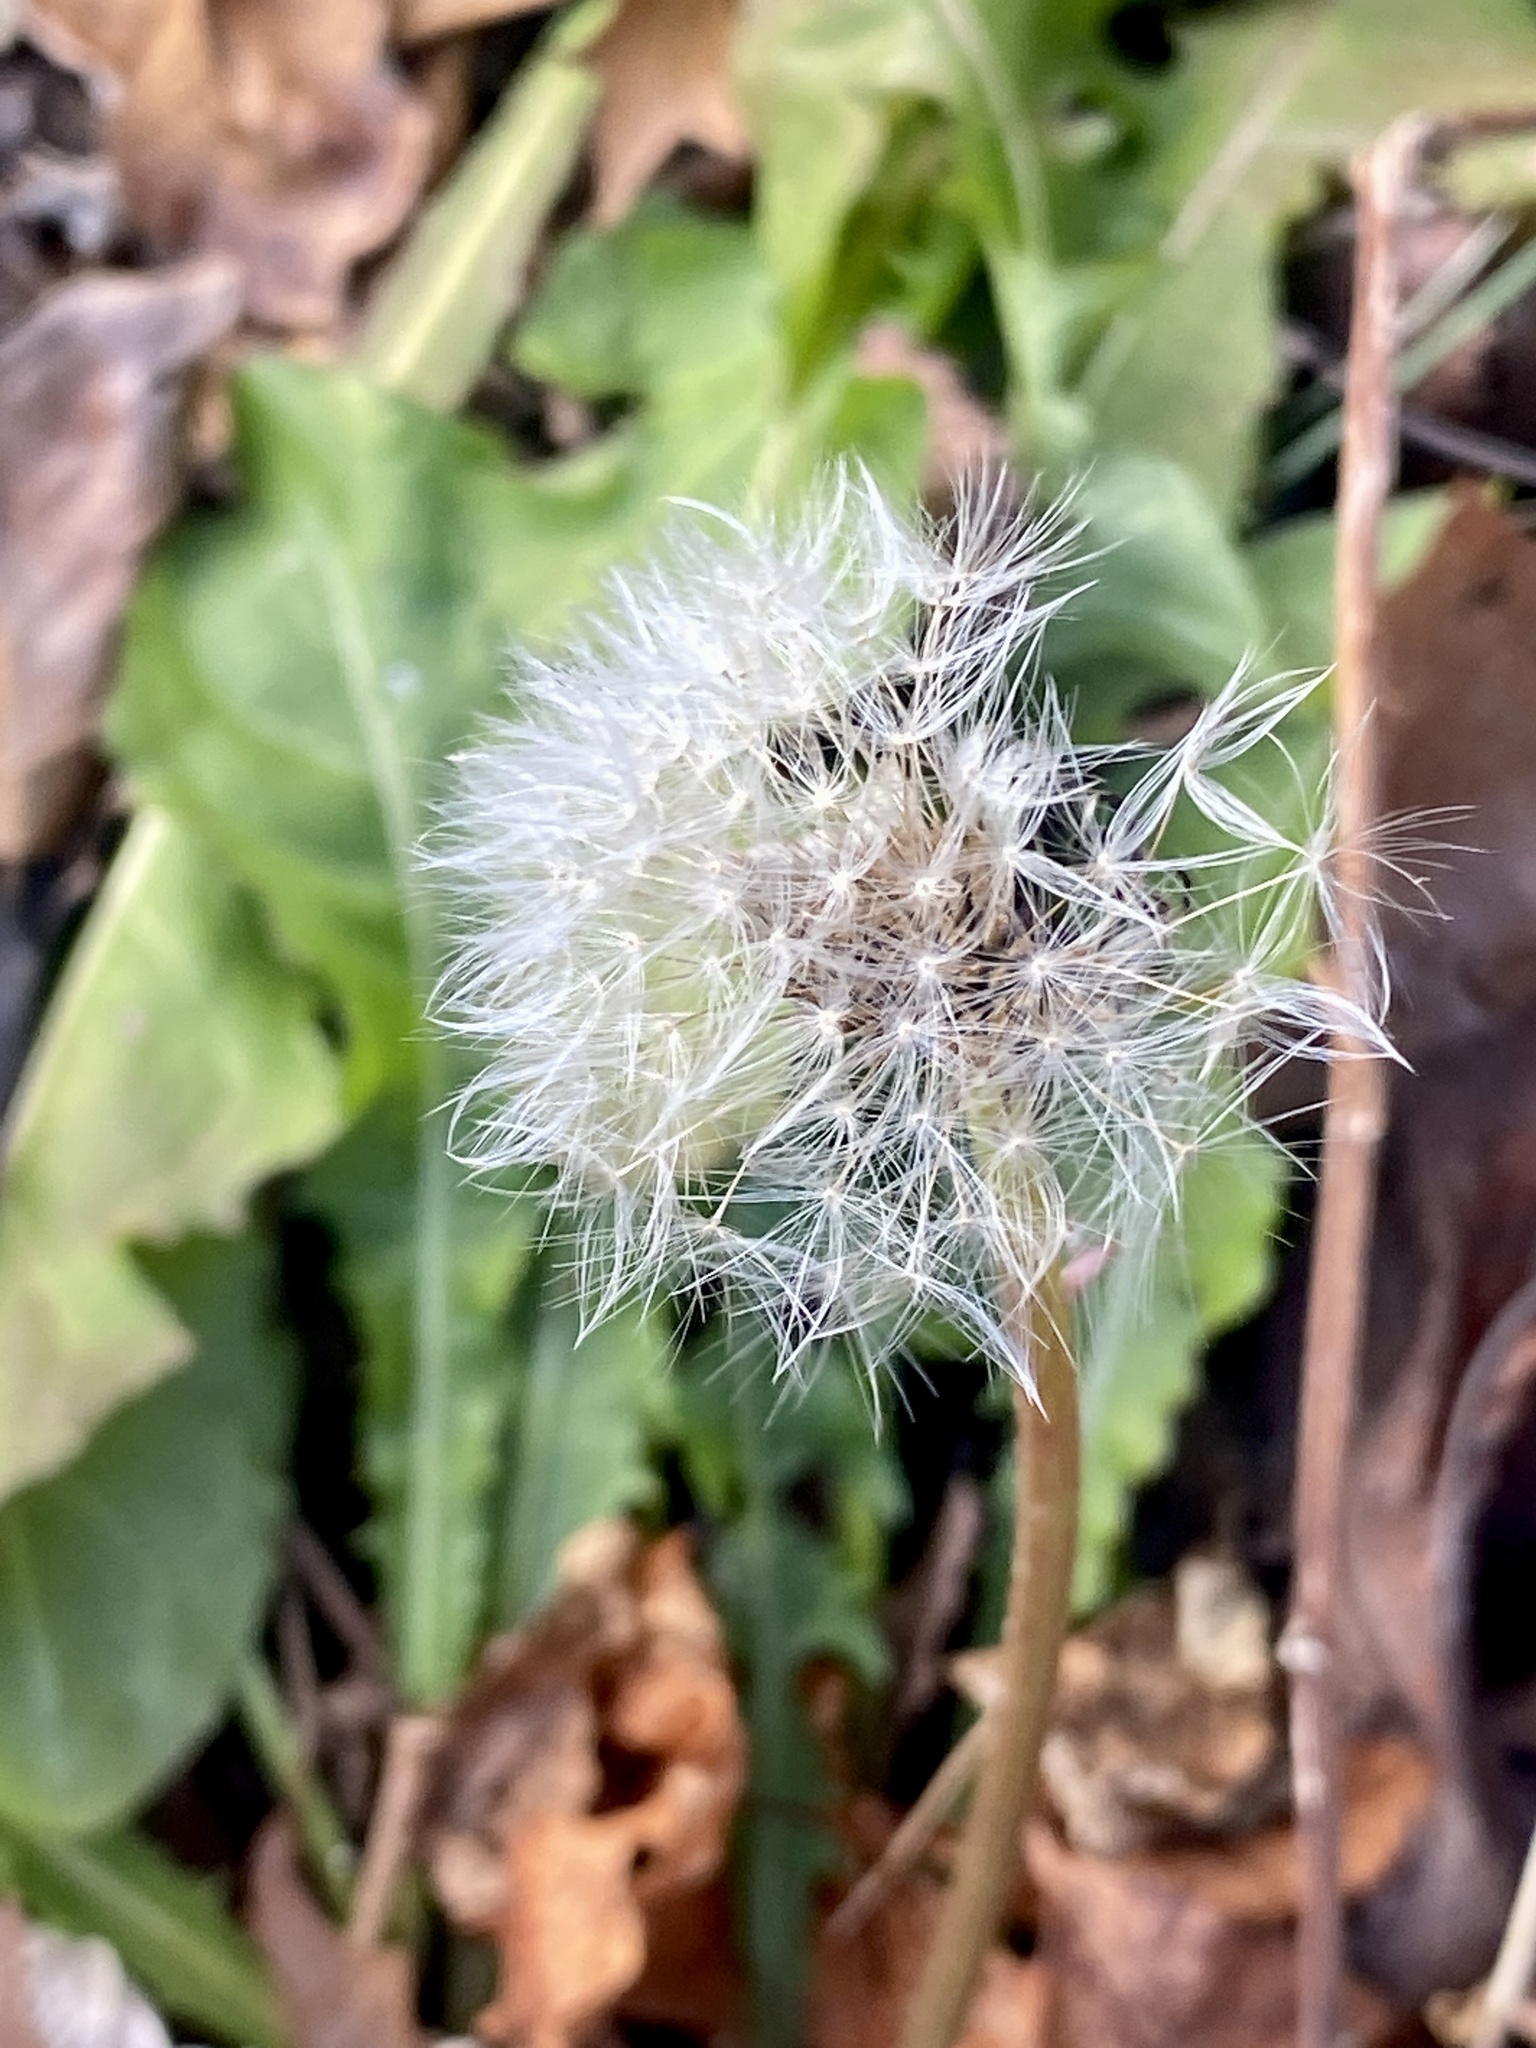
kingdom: Plantae
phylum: Tracheophyta
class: Magnoliopsida
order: Asterales
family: Asteraceae
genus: Taraxacum
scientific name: Taraxacum officinale
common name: Common dandelion
